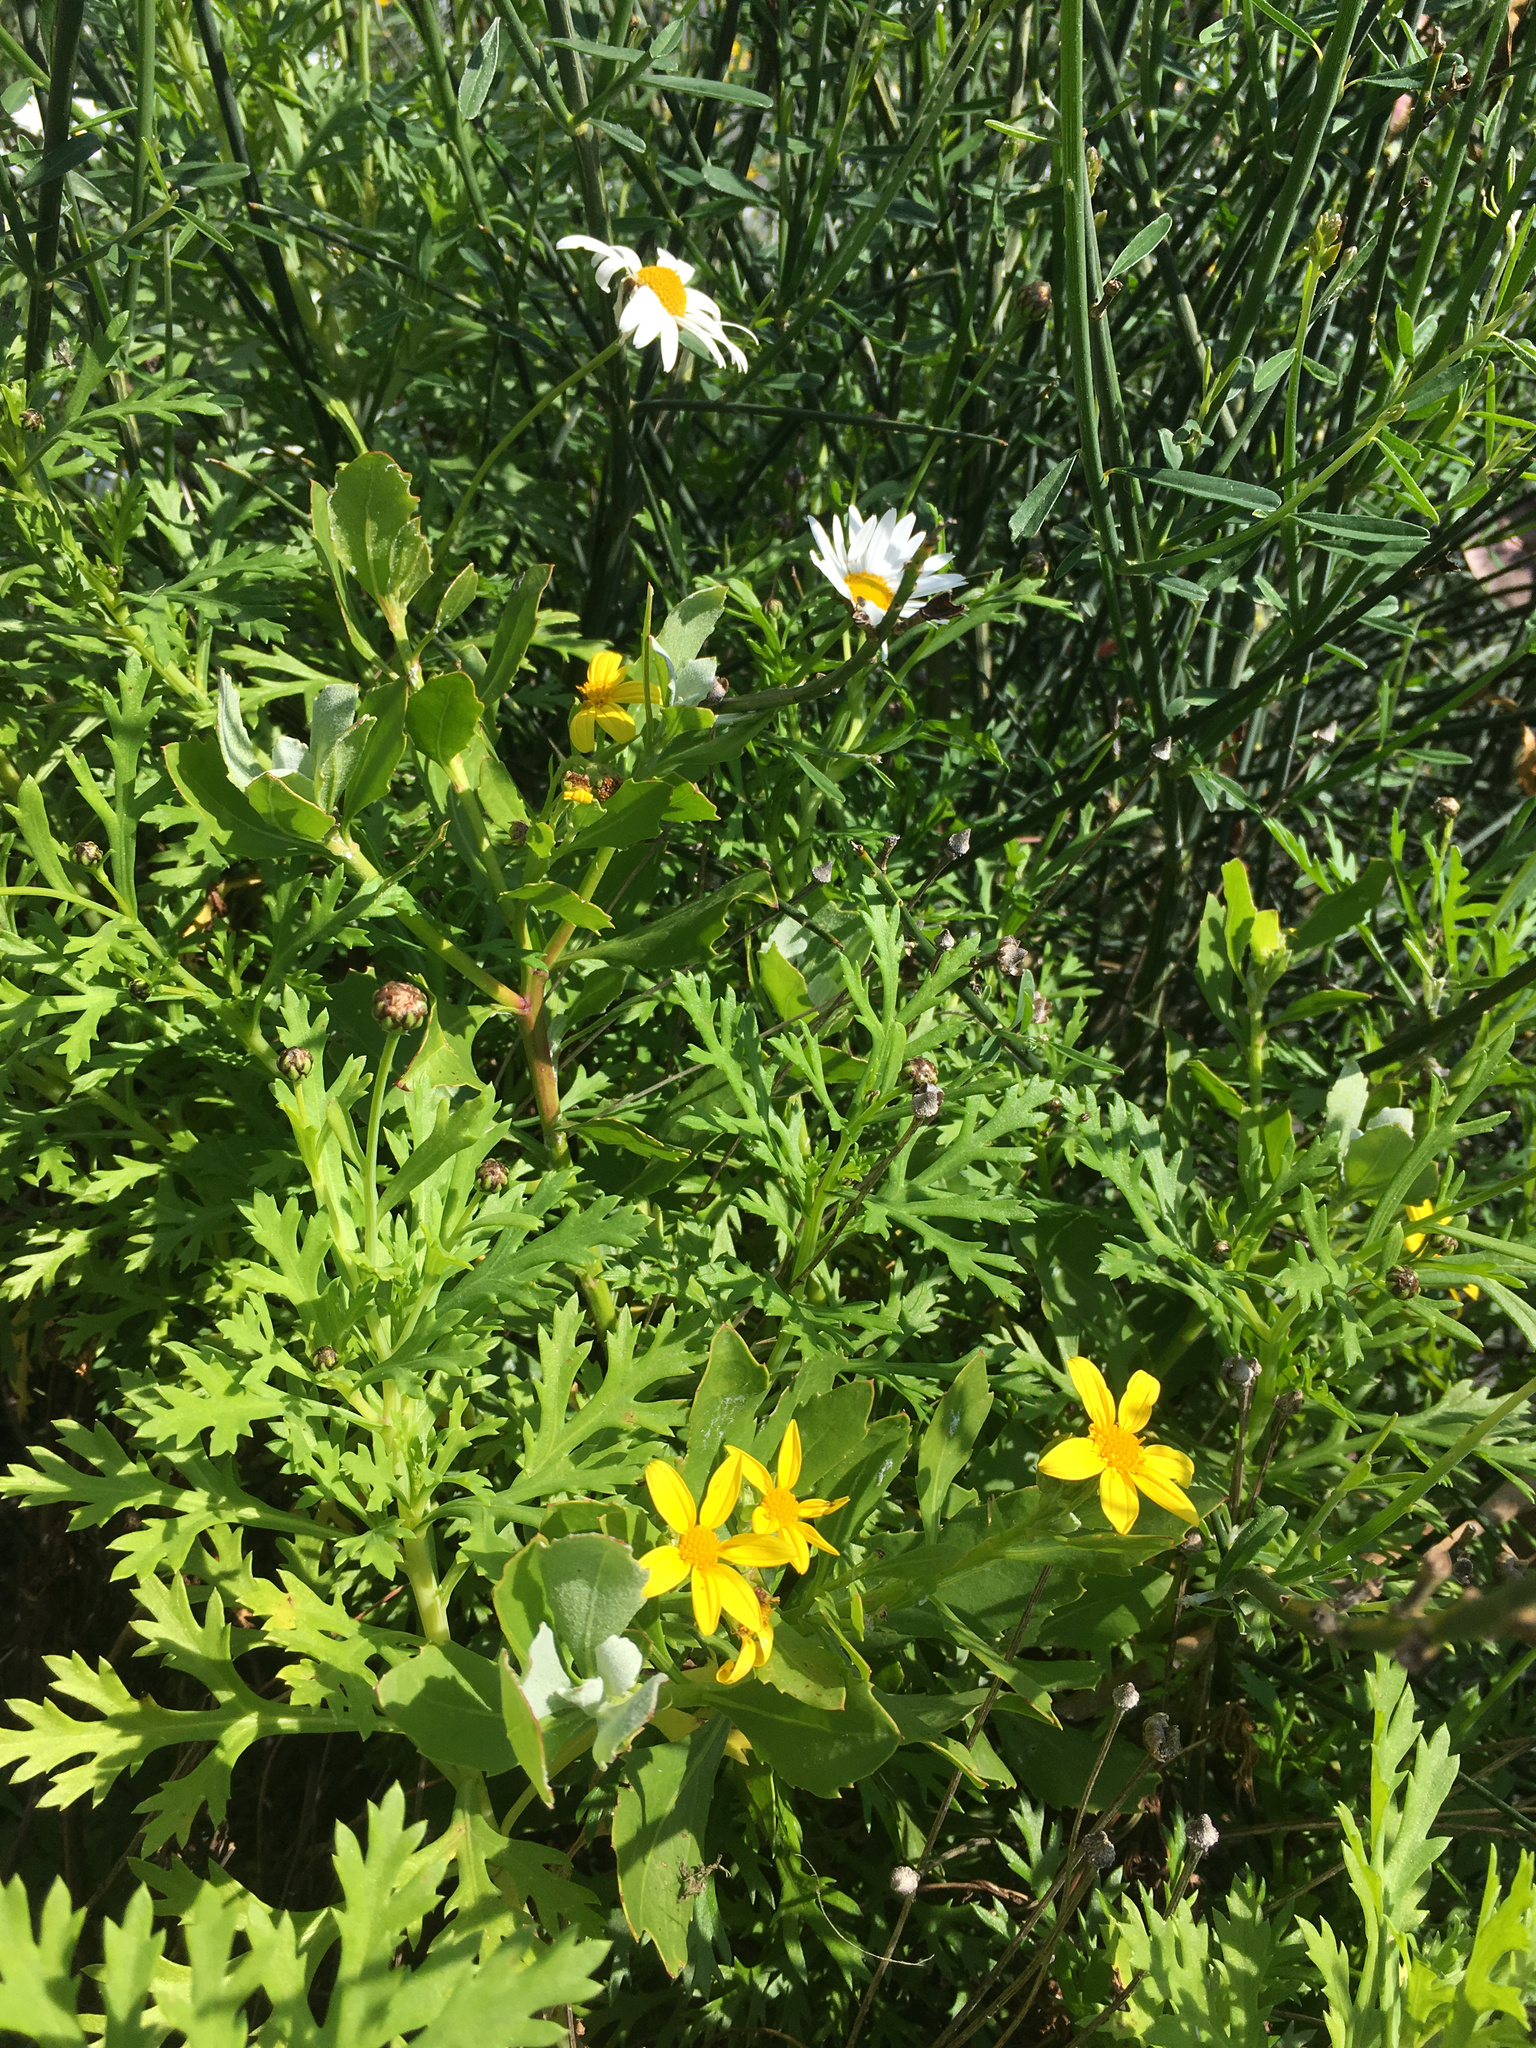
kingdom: Plantae
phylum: Tracheophyta
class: Magnoliopsida
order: Asterales
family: Asteraceae
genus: Argyranthemum
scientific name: Argyranthemum frutescens
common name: Paris daisy
